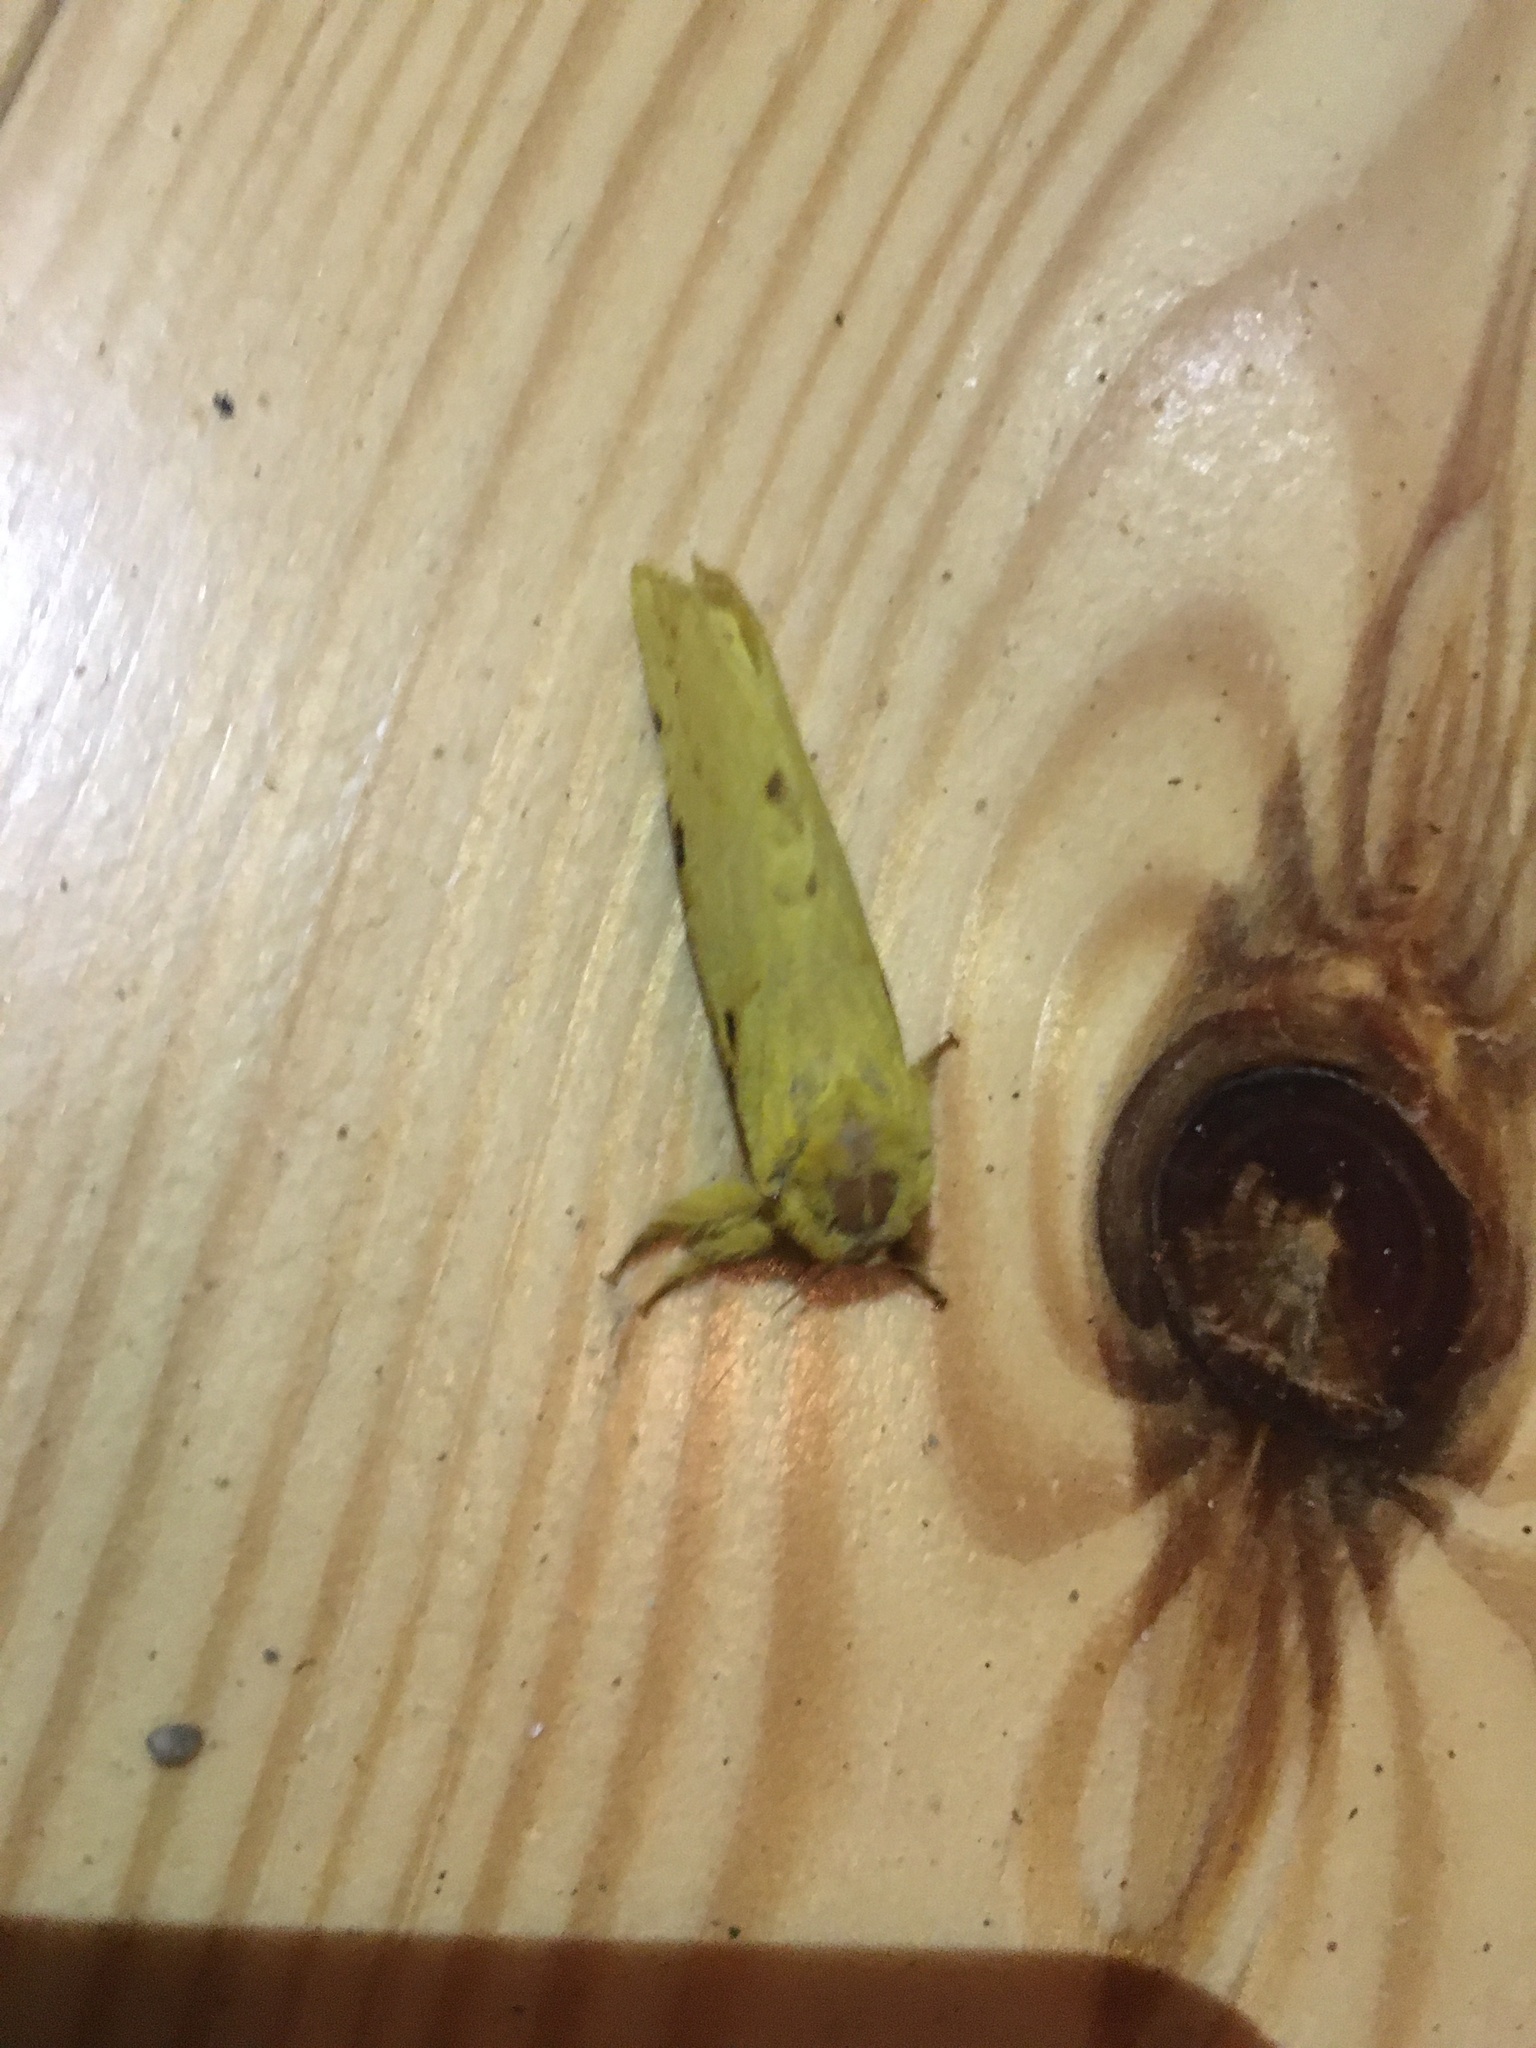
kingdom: Animalia
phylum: Arthropoda
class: Insecta
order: Lepidoptera
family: Hepialidae
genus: Sthenopis
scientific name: Sthenopis thule
